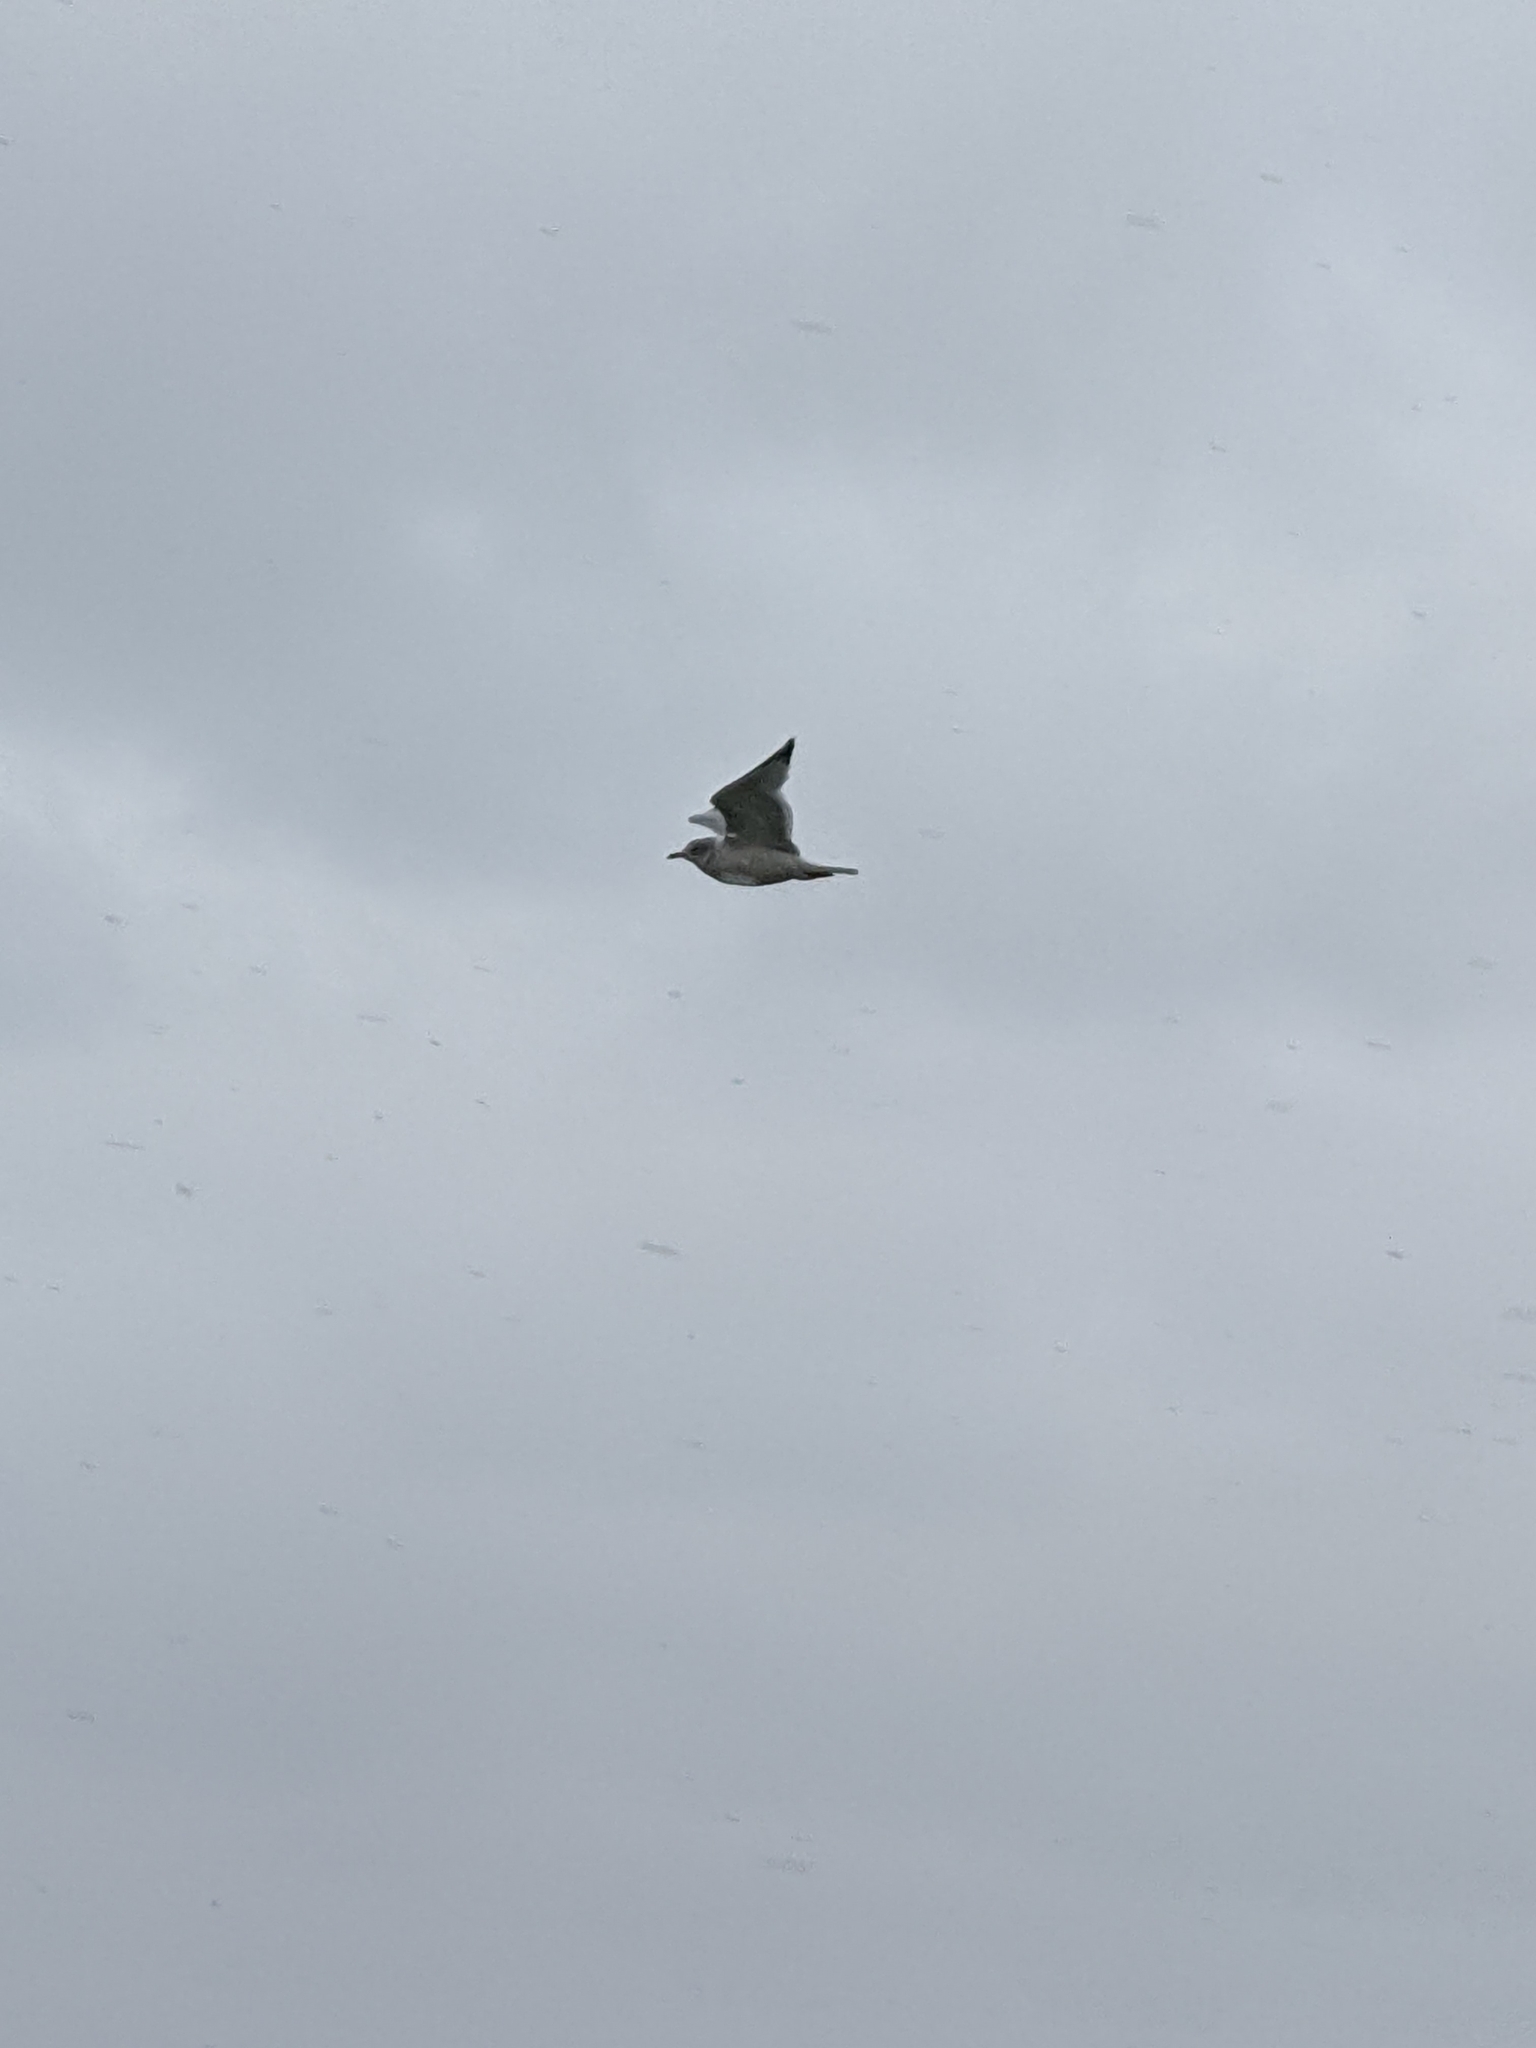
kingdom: Animalia
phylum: Chordata
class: Aves
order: Charadriiformes
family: Laridae
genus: Larus
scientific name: Larus delawarensis
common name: Ring-billed gull
